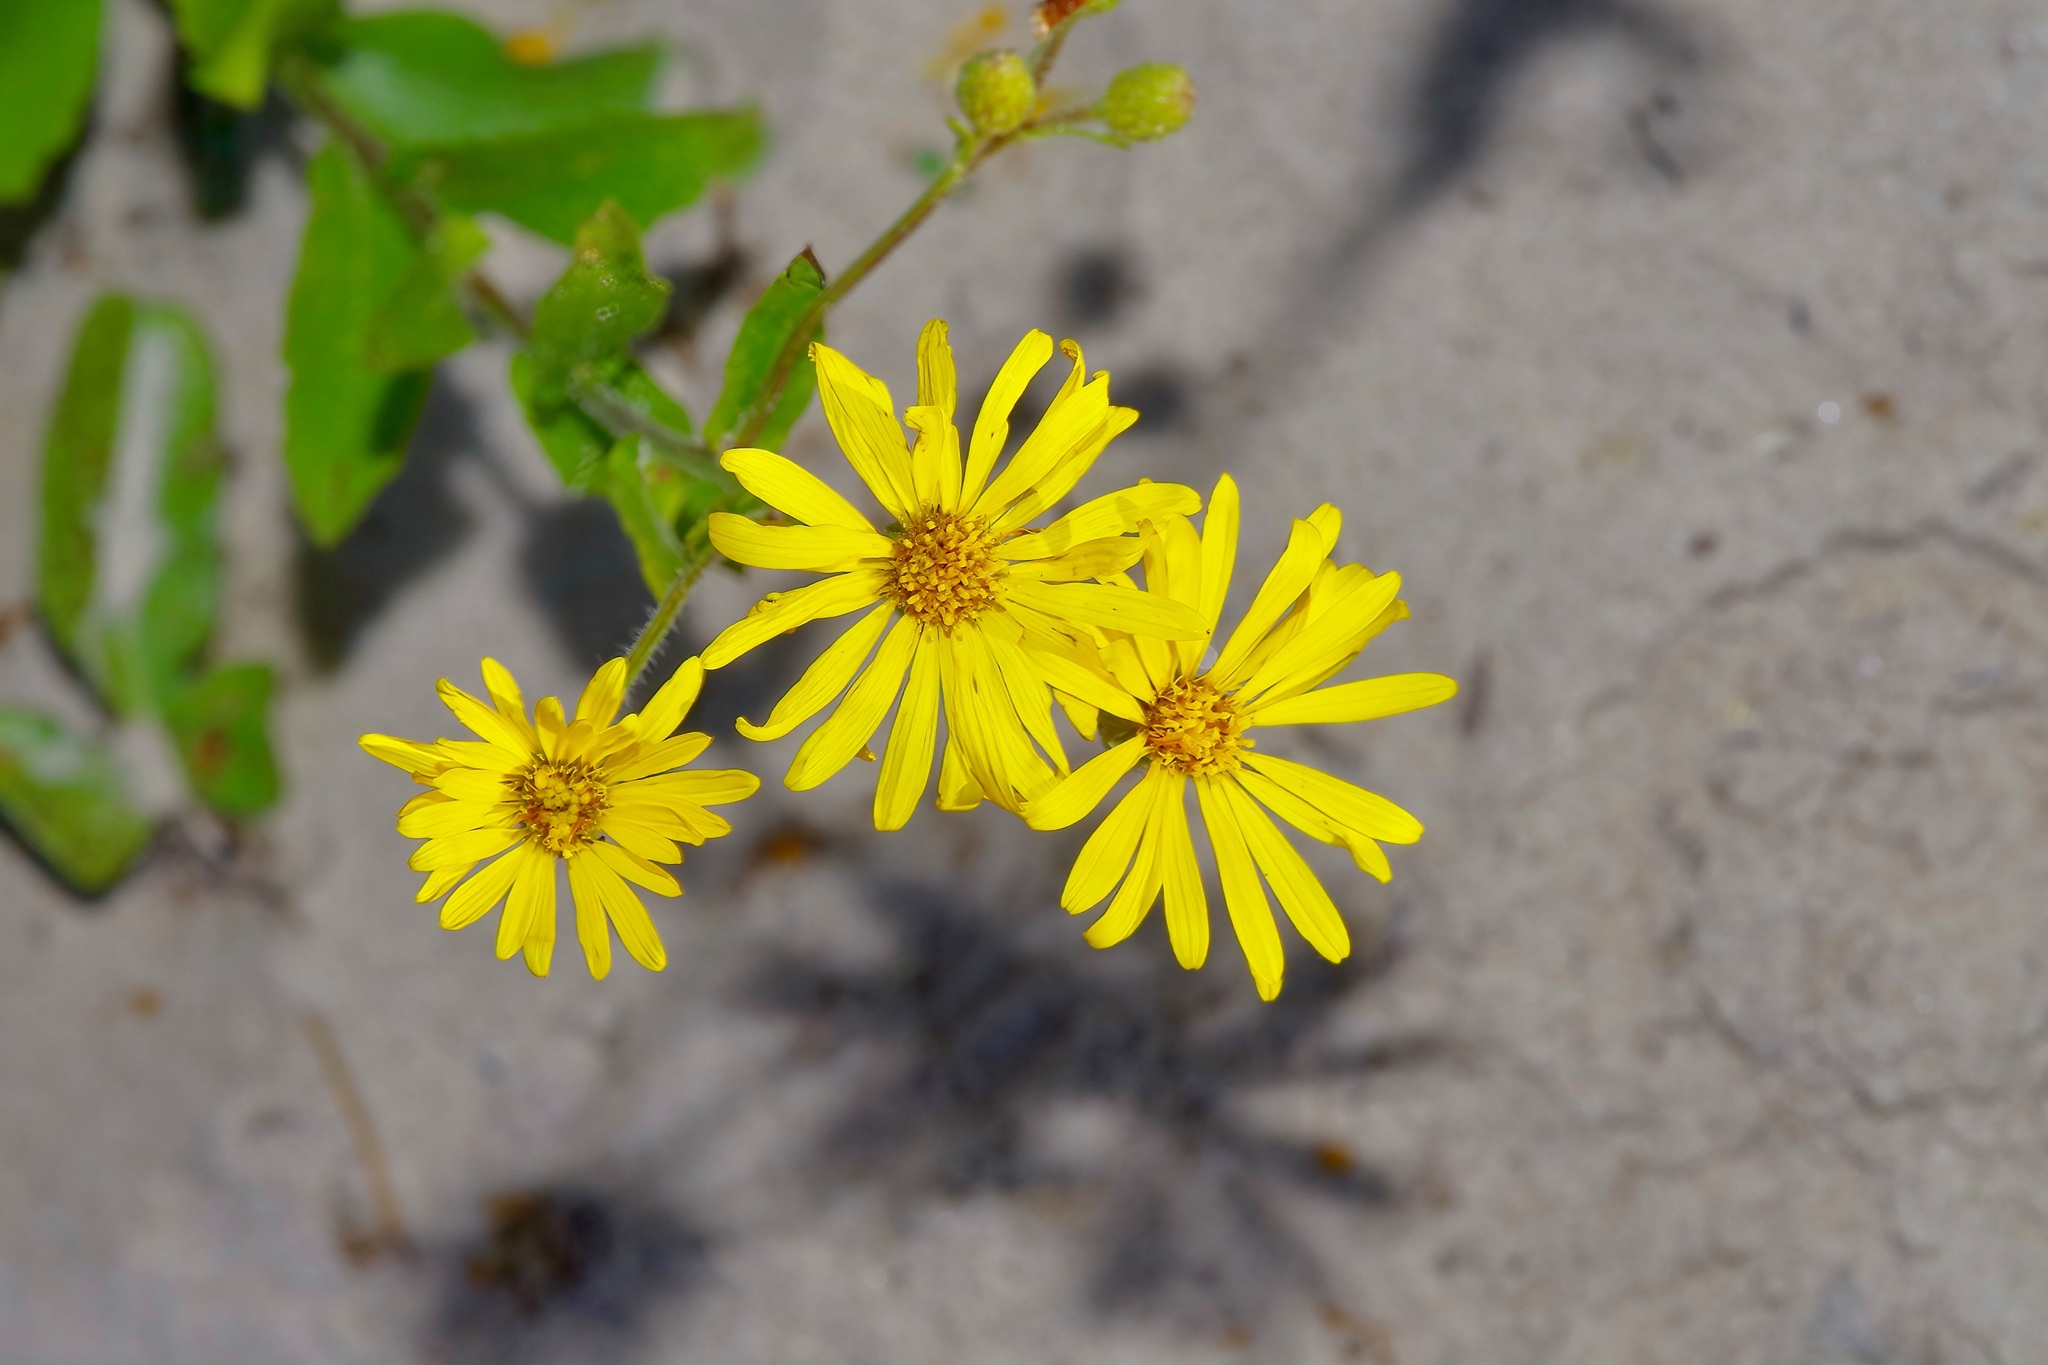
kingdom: Plantae
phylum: Tracheophyta
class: Magnoliopsida
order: Asterales
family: Asteraceae
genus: Heterotheca
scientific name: Heterotheca subaxillaris
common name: Camphorweed
